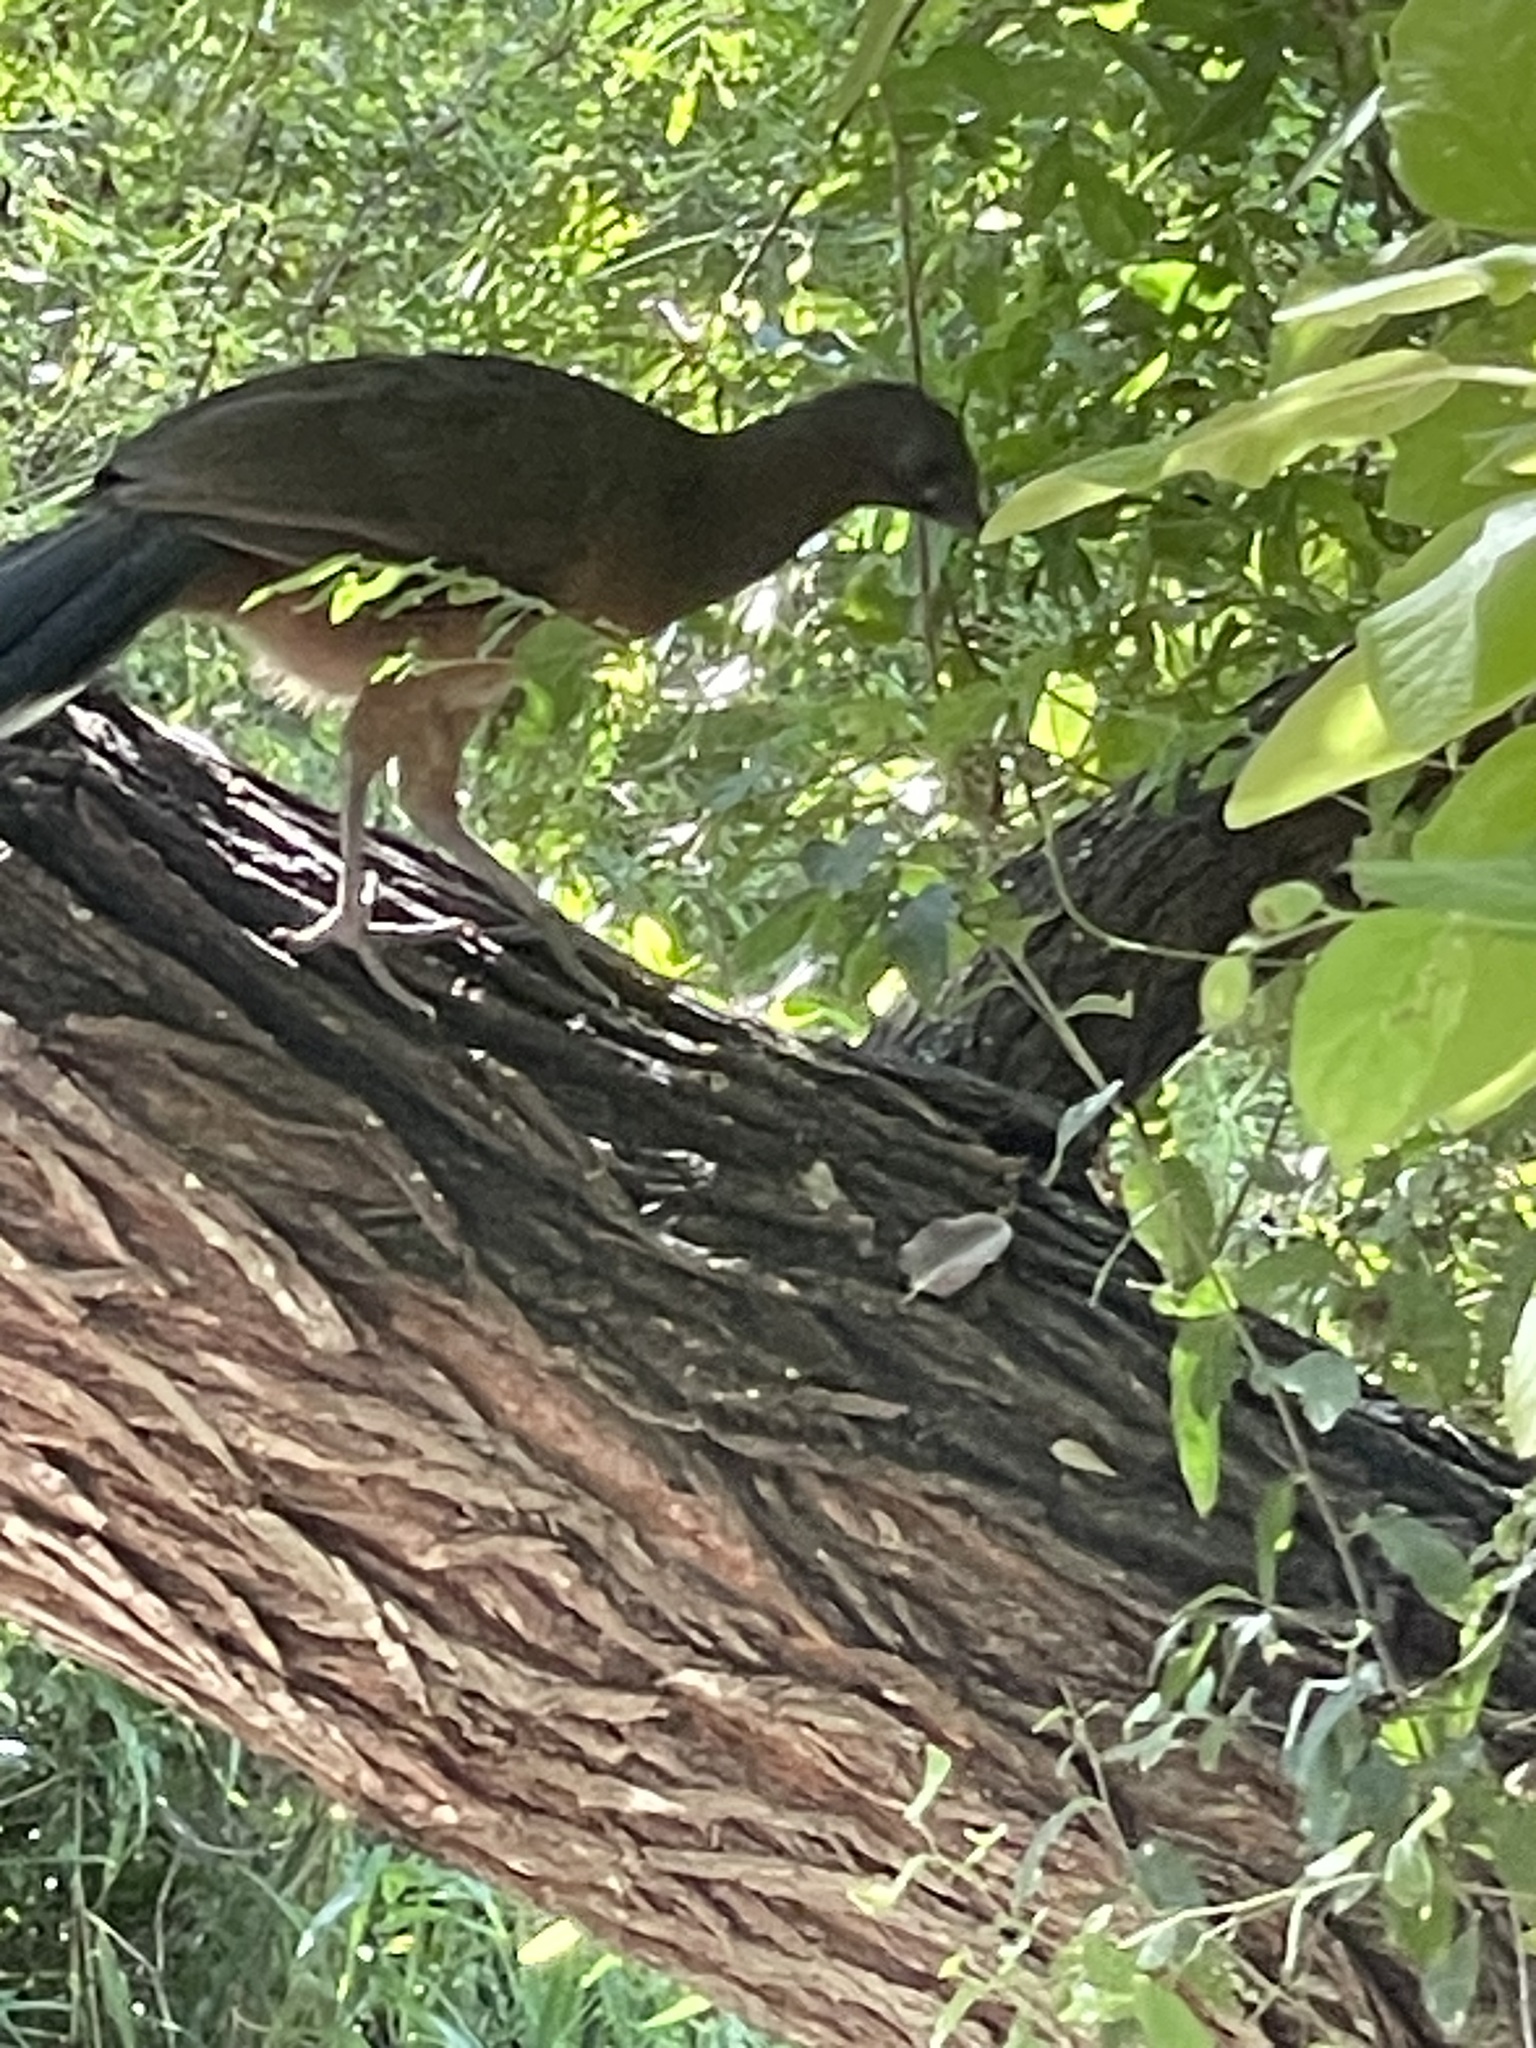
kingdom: Animalia
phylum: Chordata
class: Aves
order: Galliformes
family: Cracidae
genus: Ortalis
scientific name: Ortalis vetula
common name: Plain chachalaca
